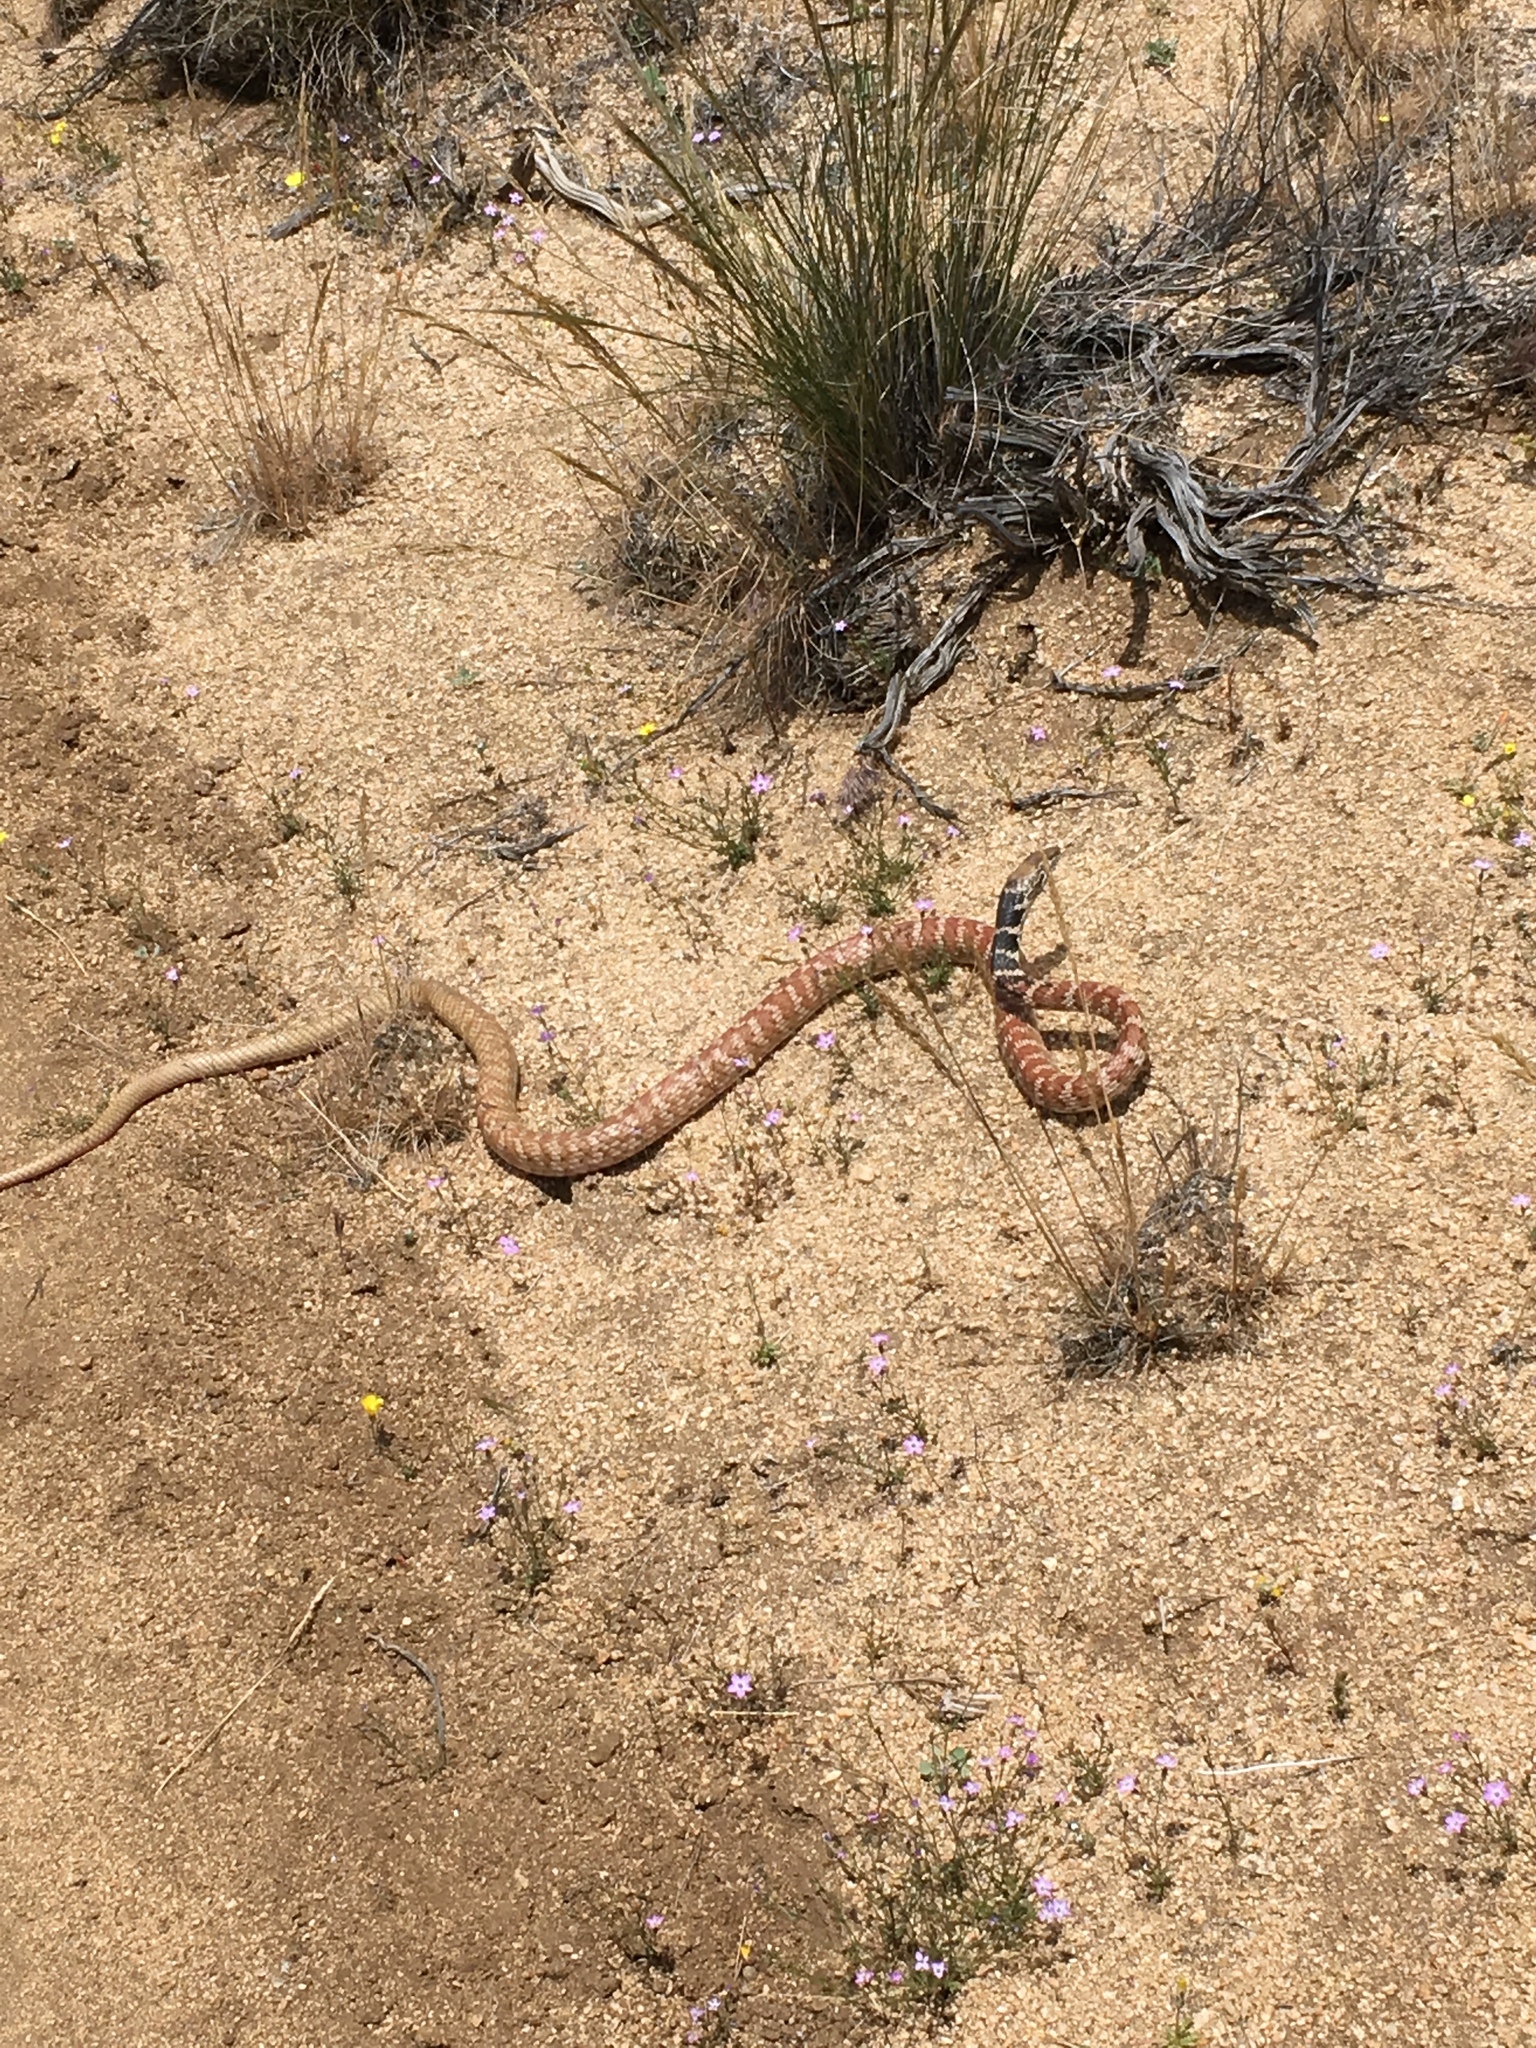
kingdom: Animalia
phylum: Chordata
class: Squamata
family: Colubridae
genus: Masticophis
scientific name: Masticophis flagellum
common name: Coachwhip
